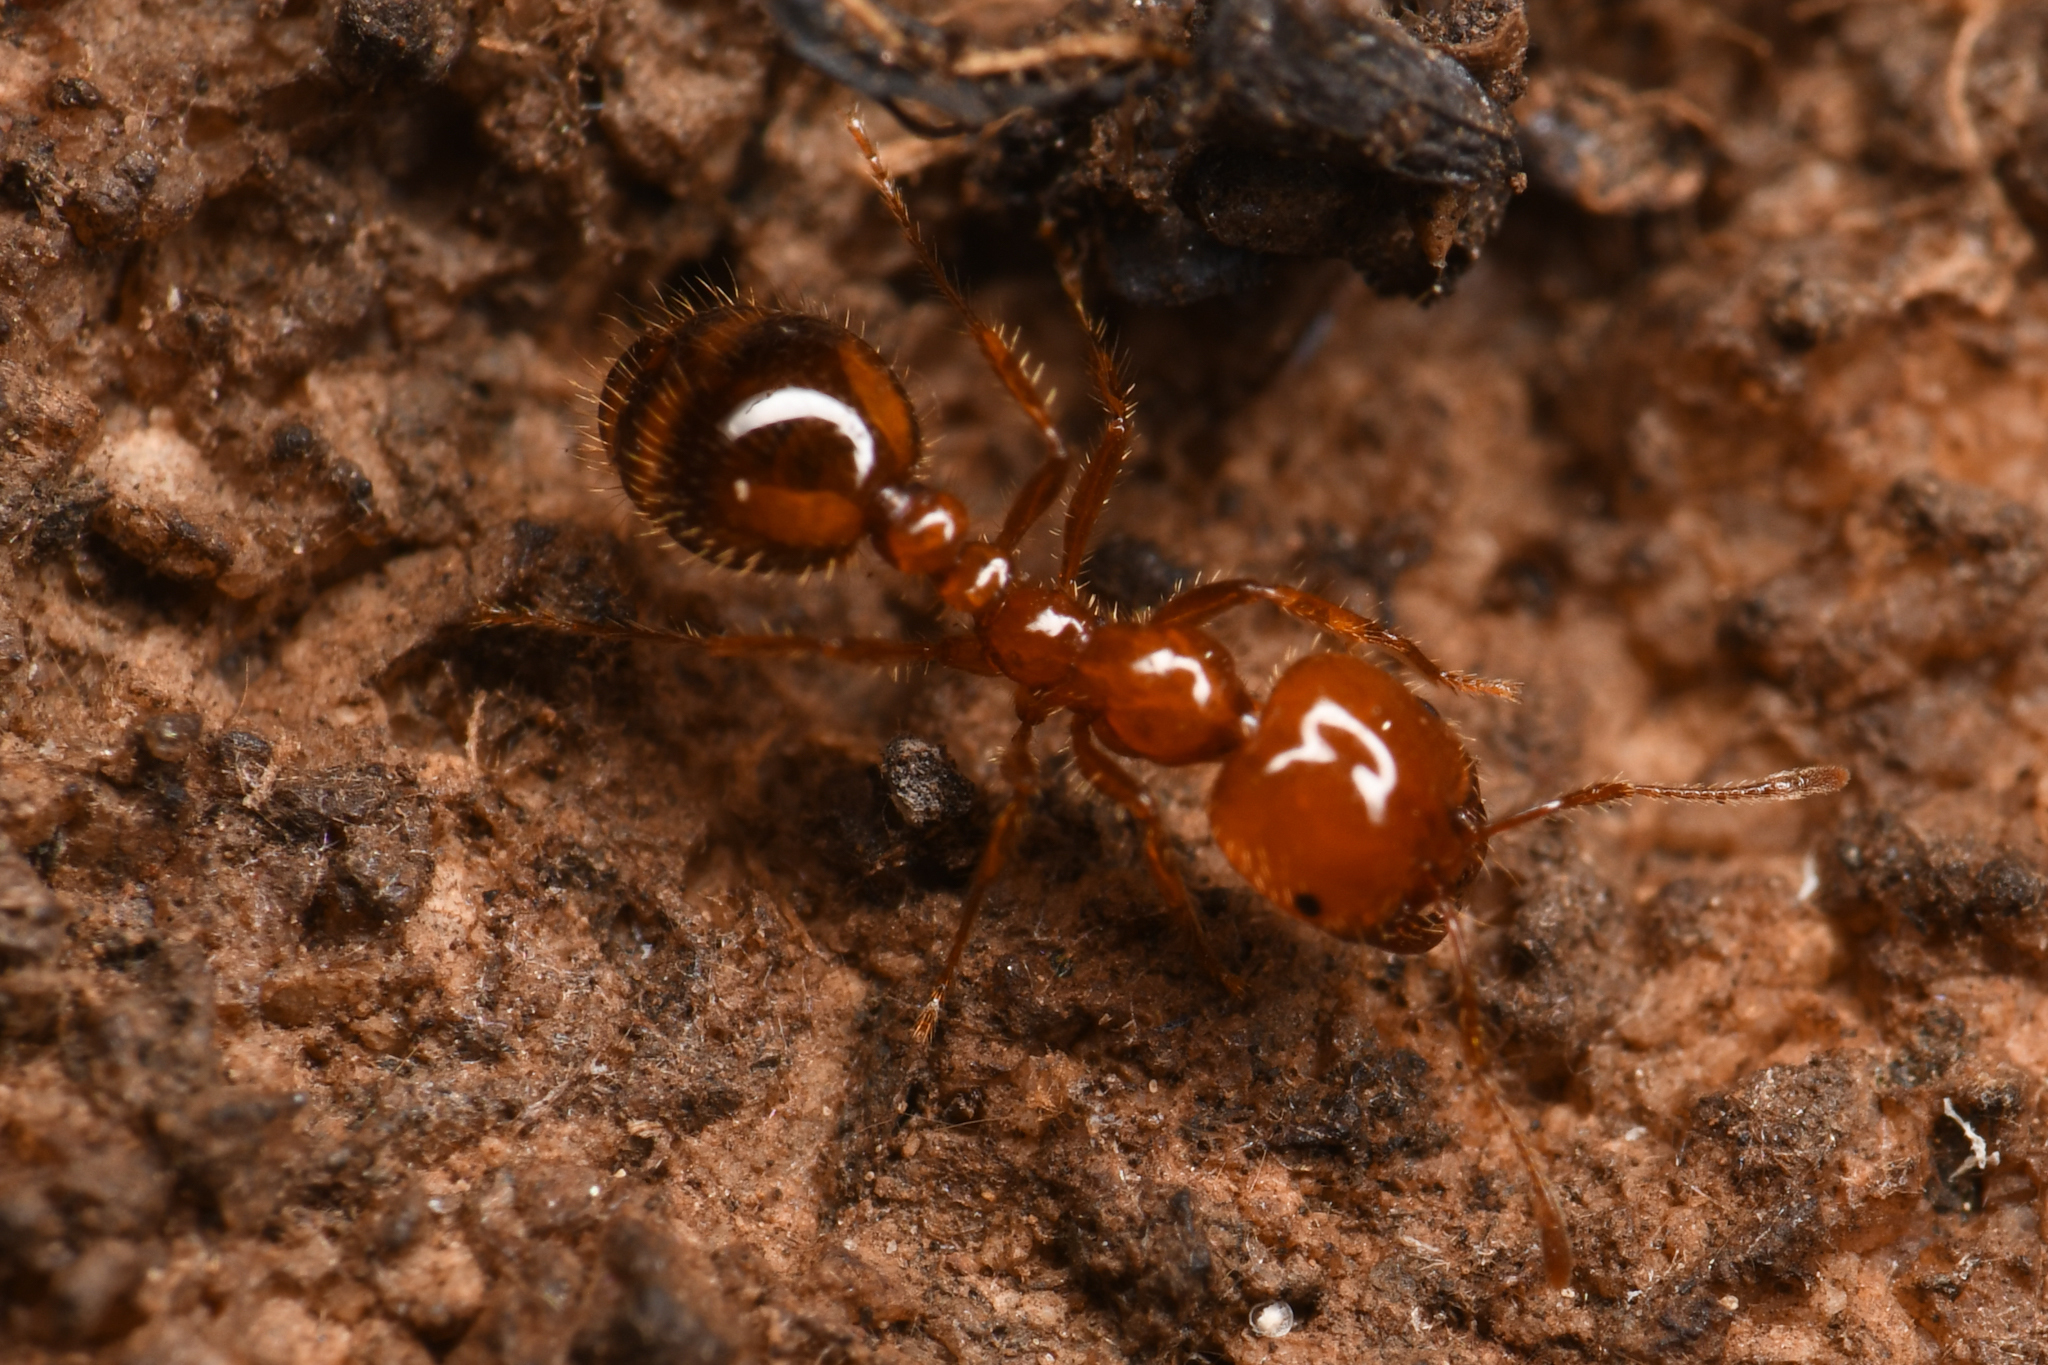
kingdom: Animalia
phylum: Arthropoda
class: Insecta
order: Hymenoptera
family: Formicidae
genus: Solenopsis
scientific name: Solenopsis xyloni
